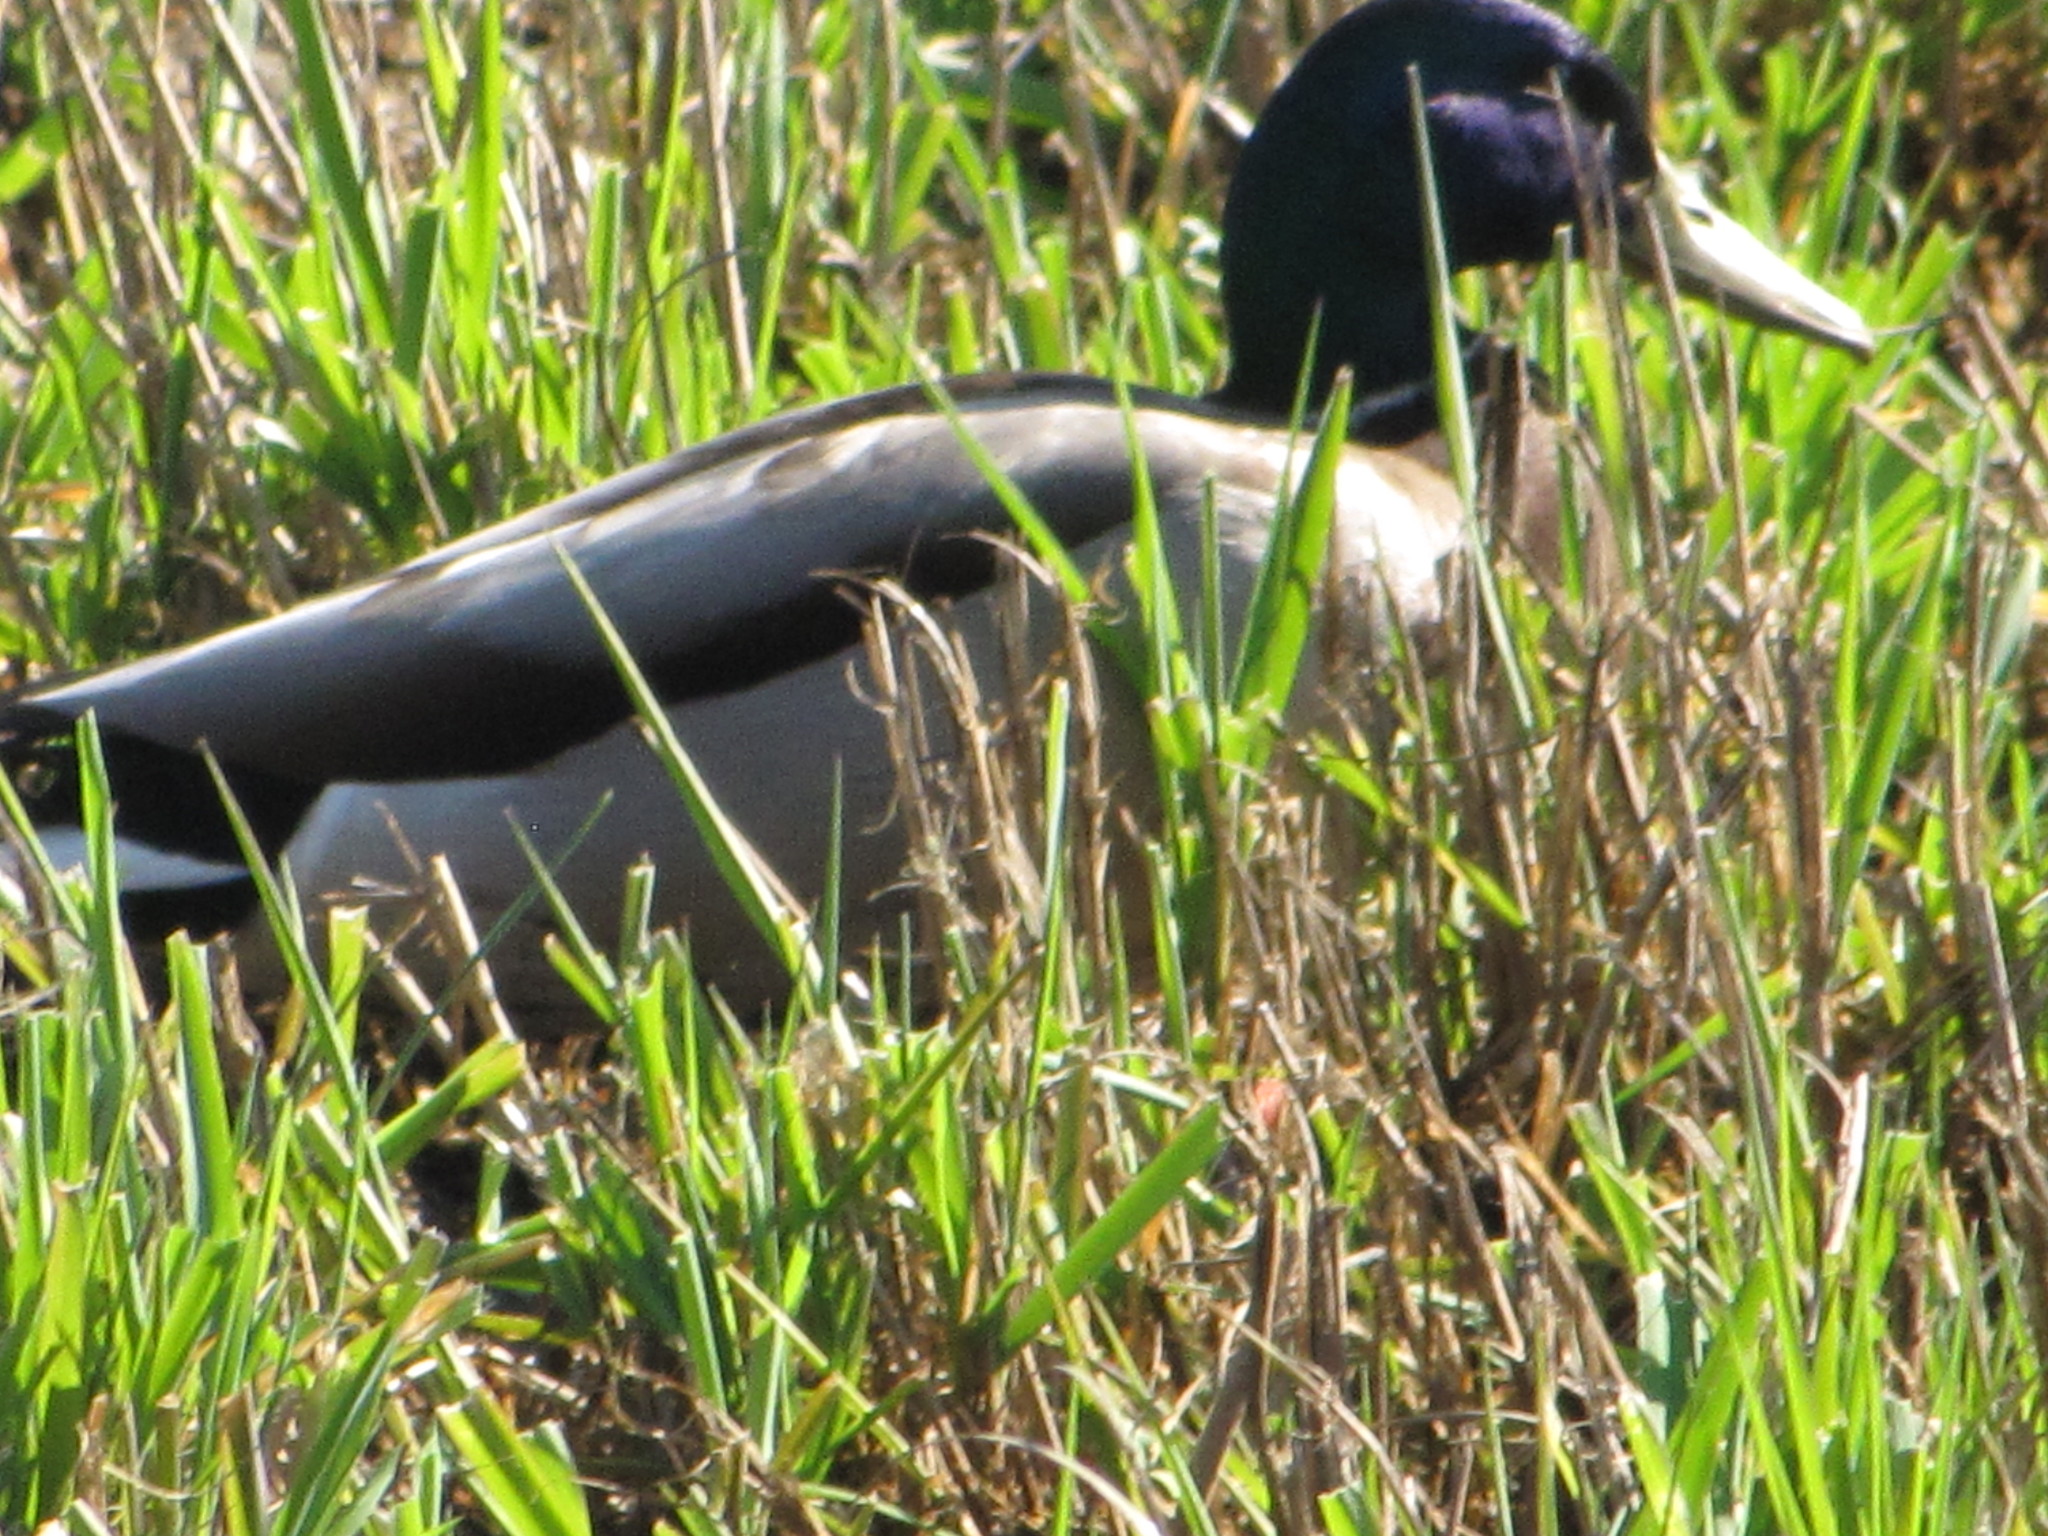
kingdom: Animalia
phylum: Chordata
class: Aves
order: Anseriformes
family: Anatidae
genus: Anas
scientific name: Anas platyrhynchos
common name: Mallard
